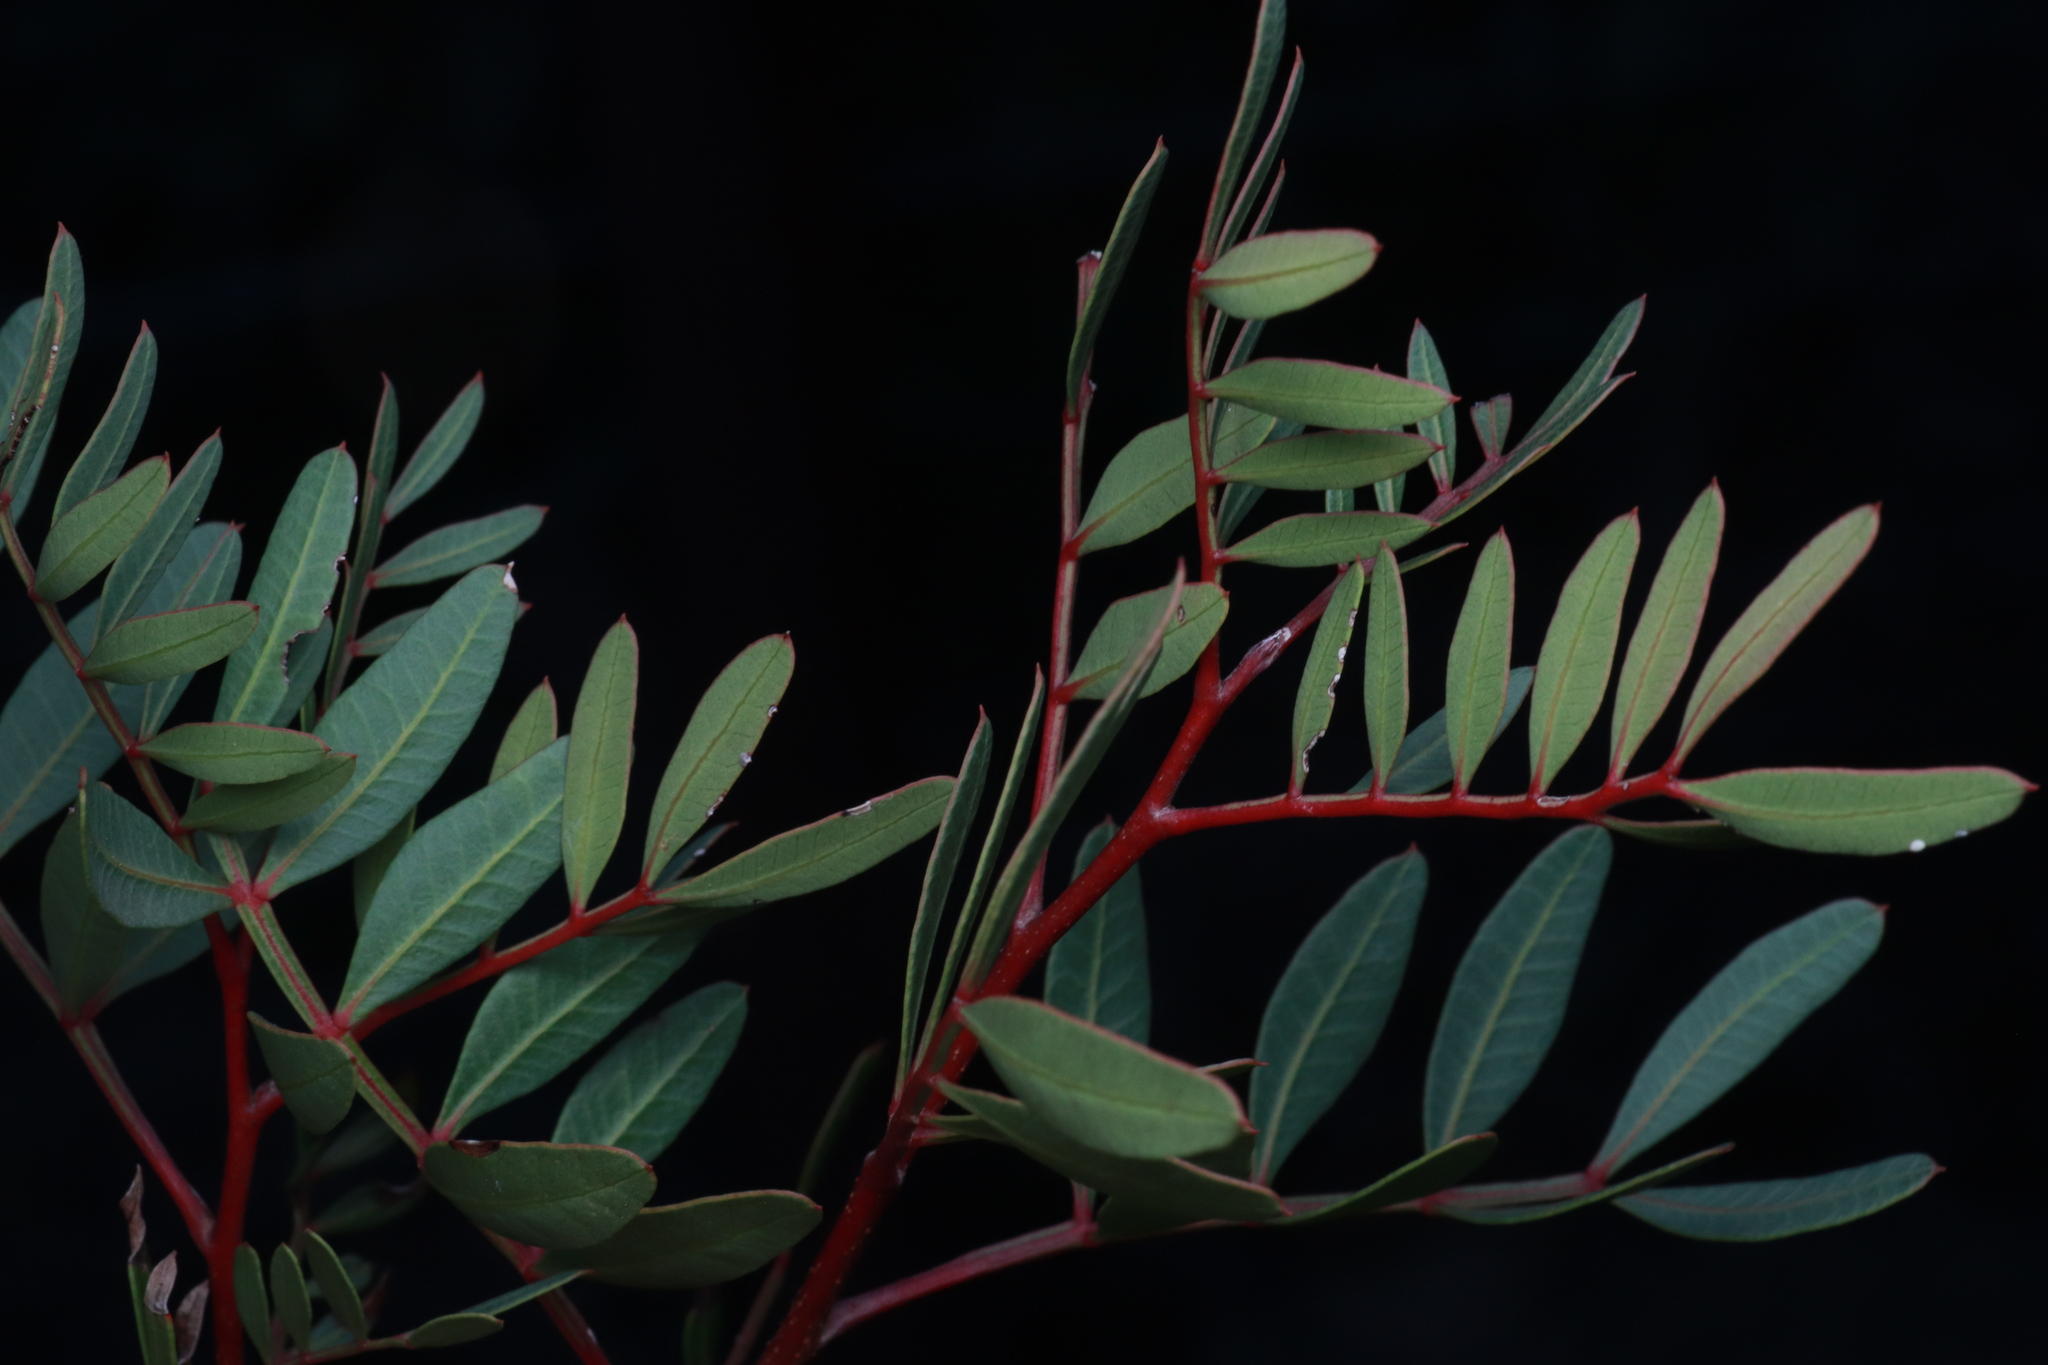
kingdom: Plantae
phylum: Tracheophyta
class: Magnoliopsida
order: Sapindales
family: Anacardiaceae
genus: Pistacia
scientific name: Pistacia lentiscus
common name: Lentisk
